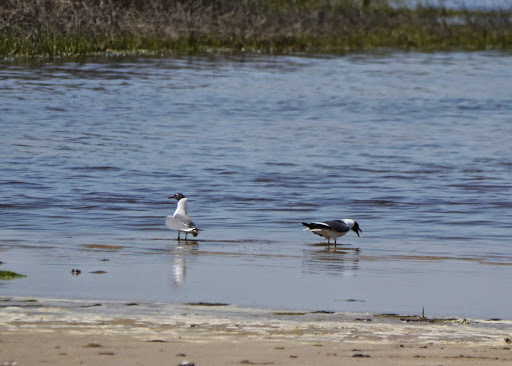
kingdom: Animalia
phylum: Chordata
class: Aves
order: Charadriiformes
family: Laridae
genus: Leucophaeus
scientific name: Leucophaeus atricilla
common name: Laughing gull
